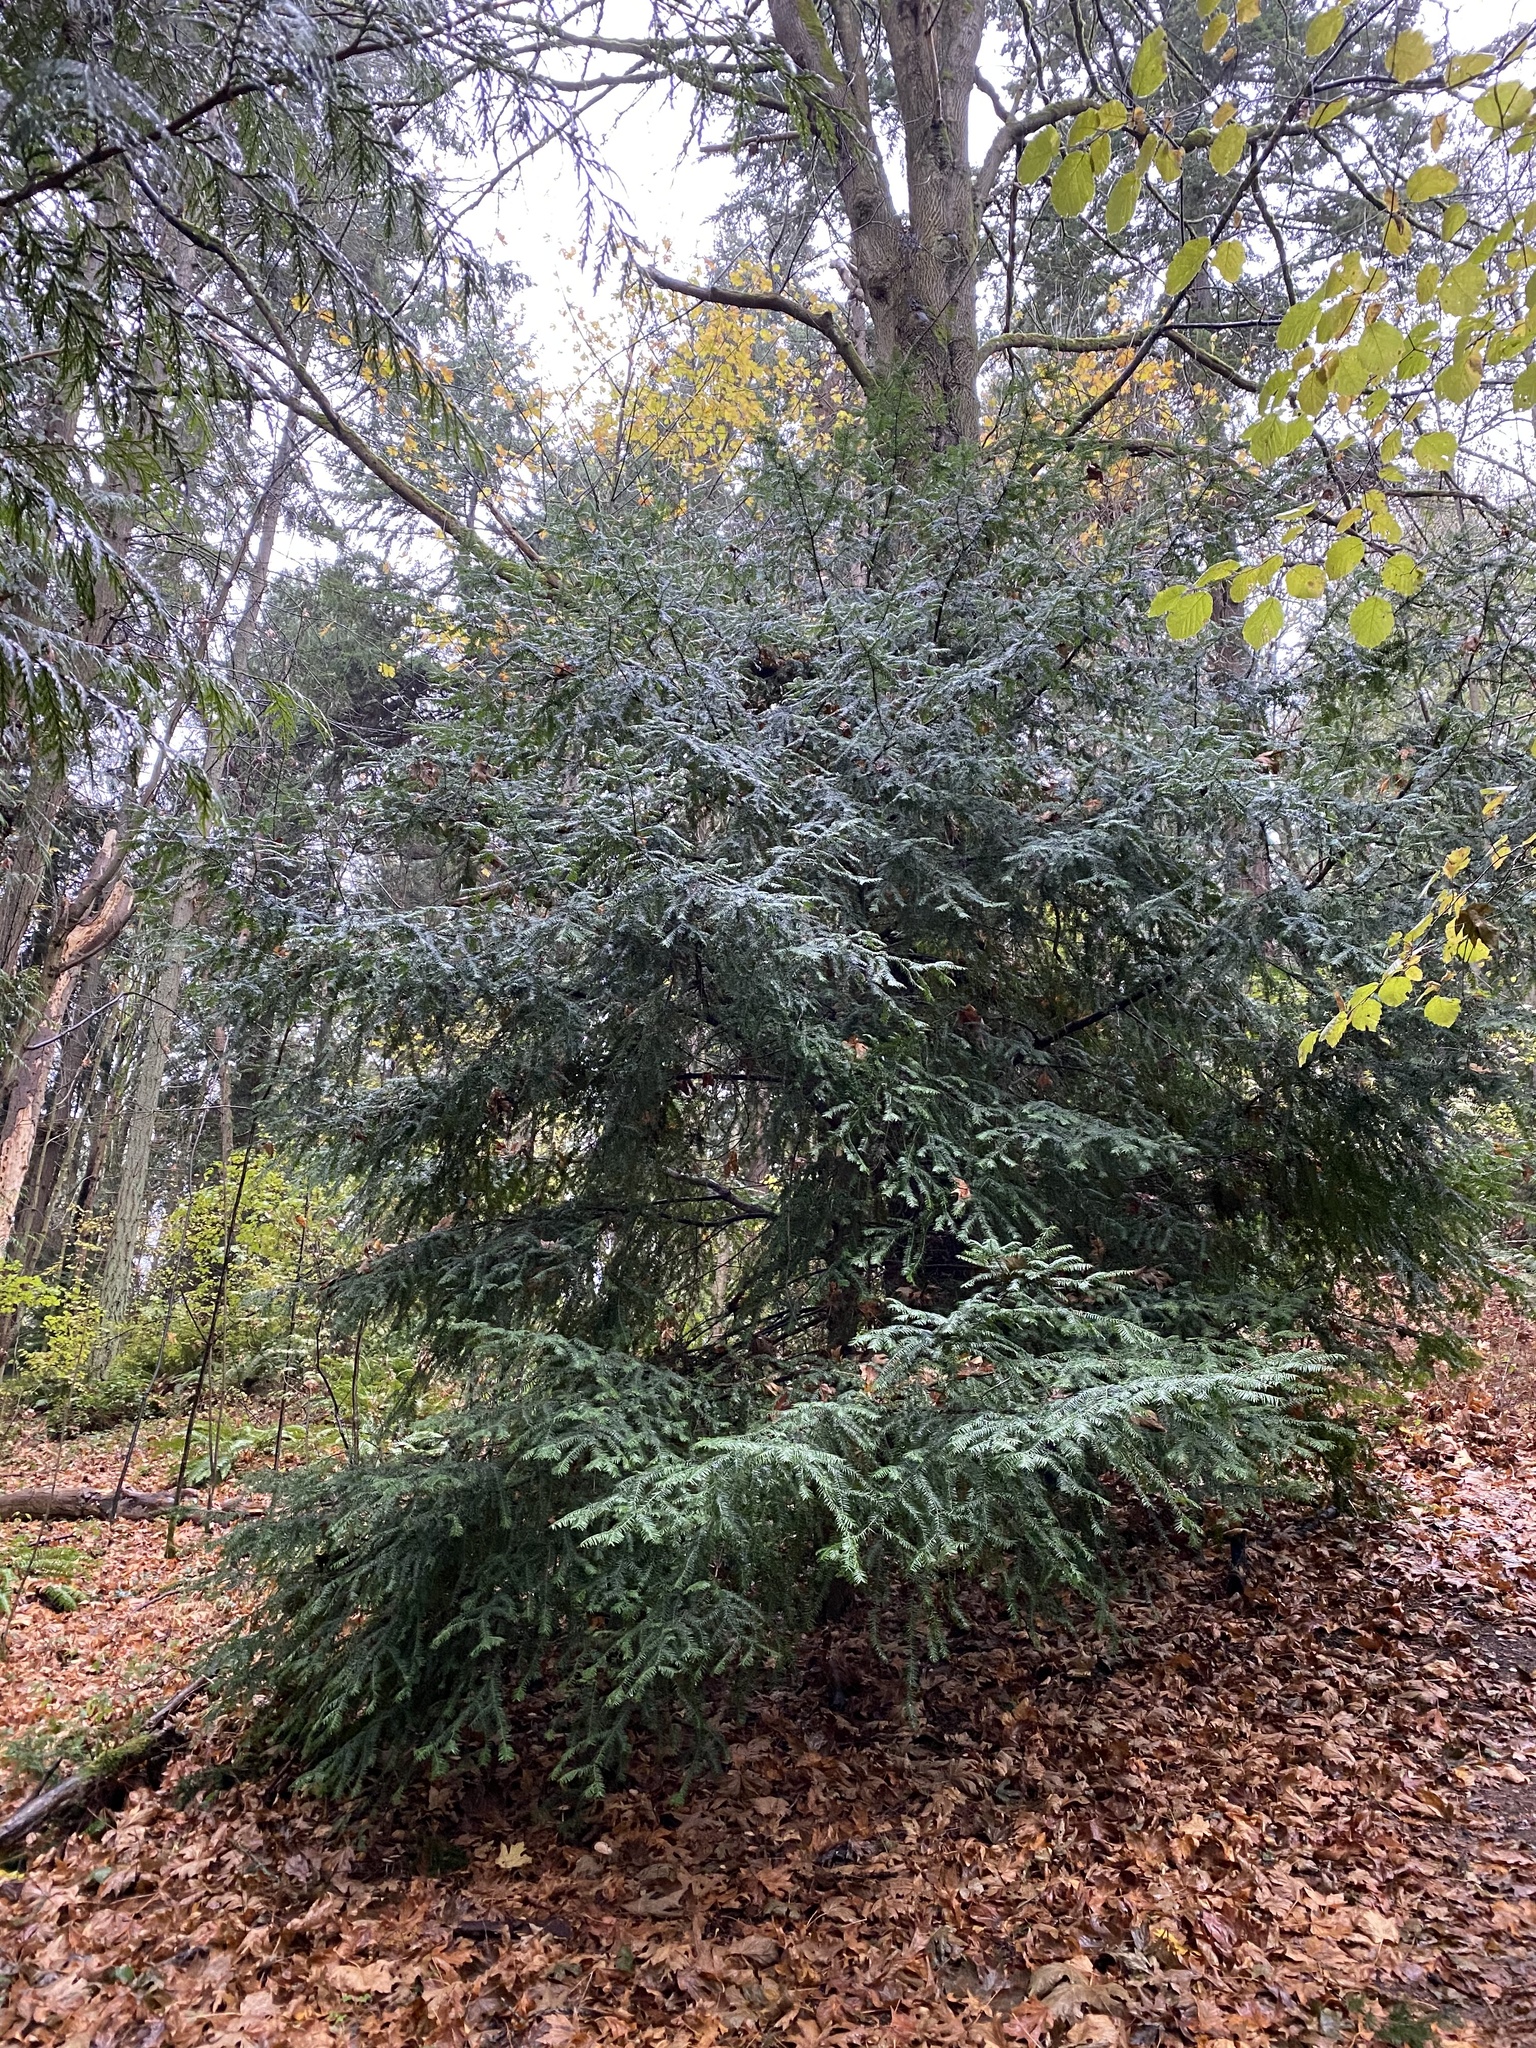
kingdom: Plantae
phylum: Tracheophyta
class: Pinopsida
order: Pinales
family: Taxaceae
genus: Taxus
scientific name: Taxus brevifolia
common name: Pacific yew
